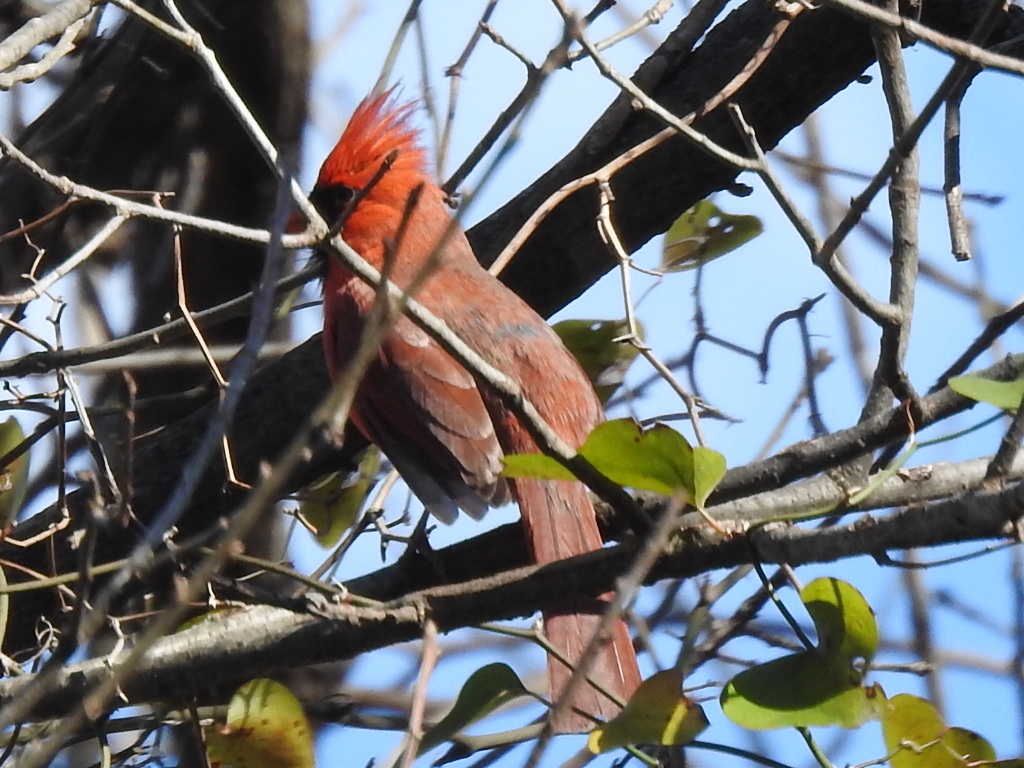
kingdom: Animalia
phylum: Chordata
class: Aves
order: Passeriformes
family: Cardinalidae
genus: Cardinalis
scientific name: Cardinalis cardinalis
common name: Northern cardinal
